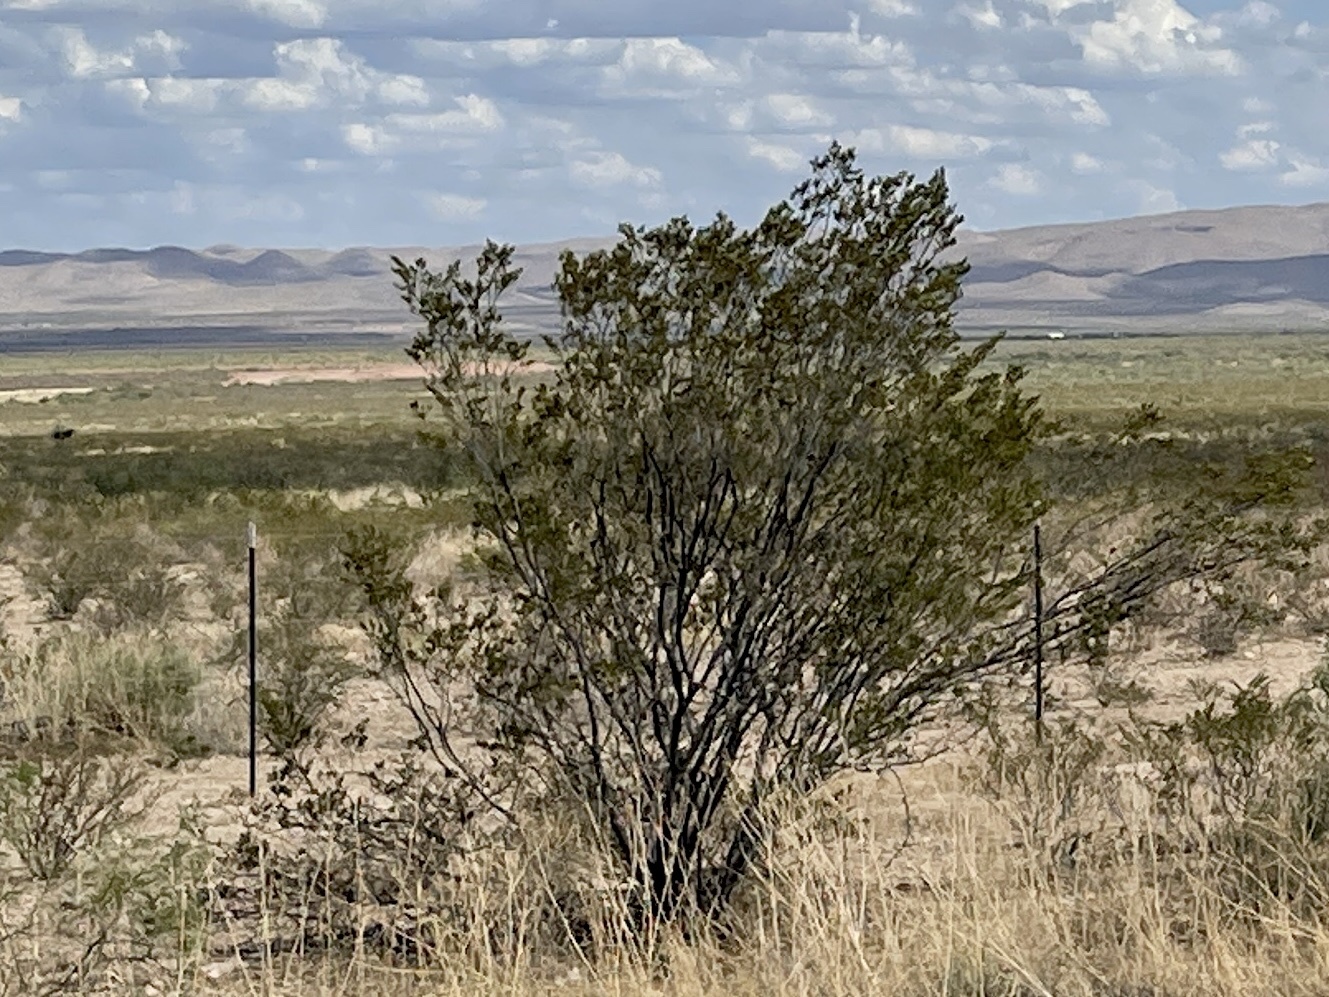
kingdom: Plantae
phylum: Tracheophyta
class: Magnoliopsida
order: Zygophyllales
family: Zygophyllaceae
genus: Larrea
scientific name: Larrea tridentata
